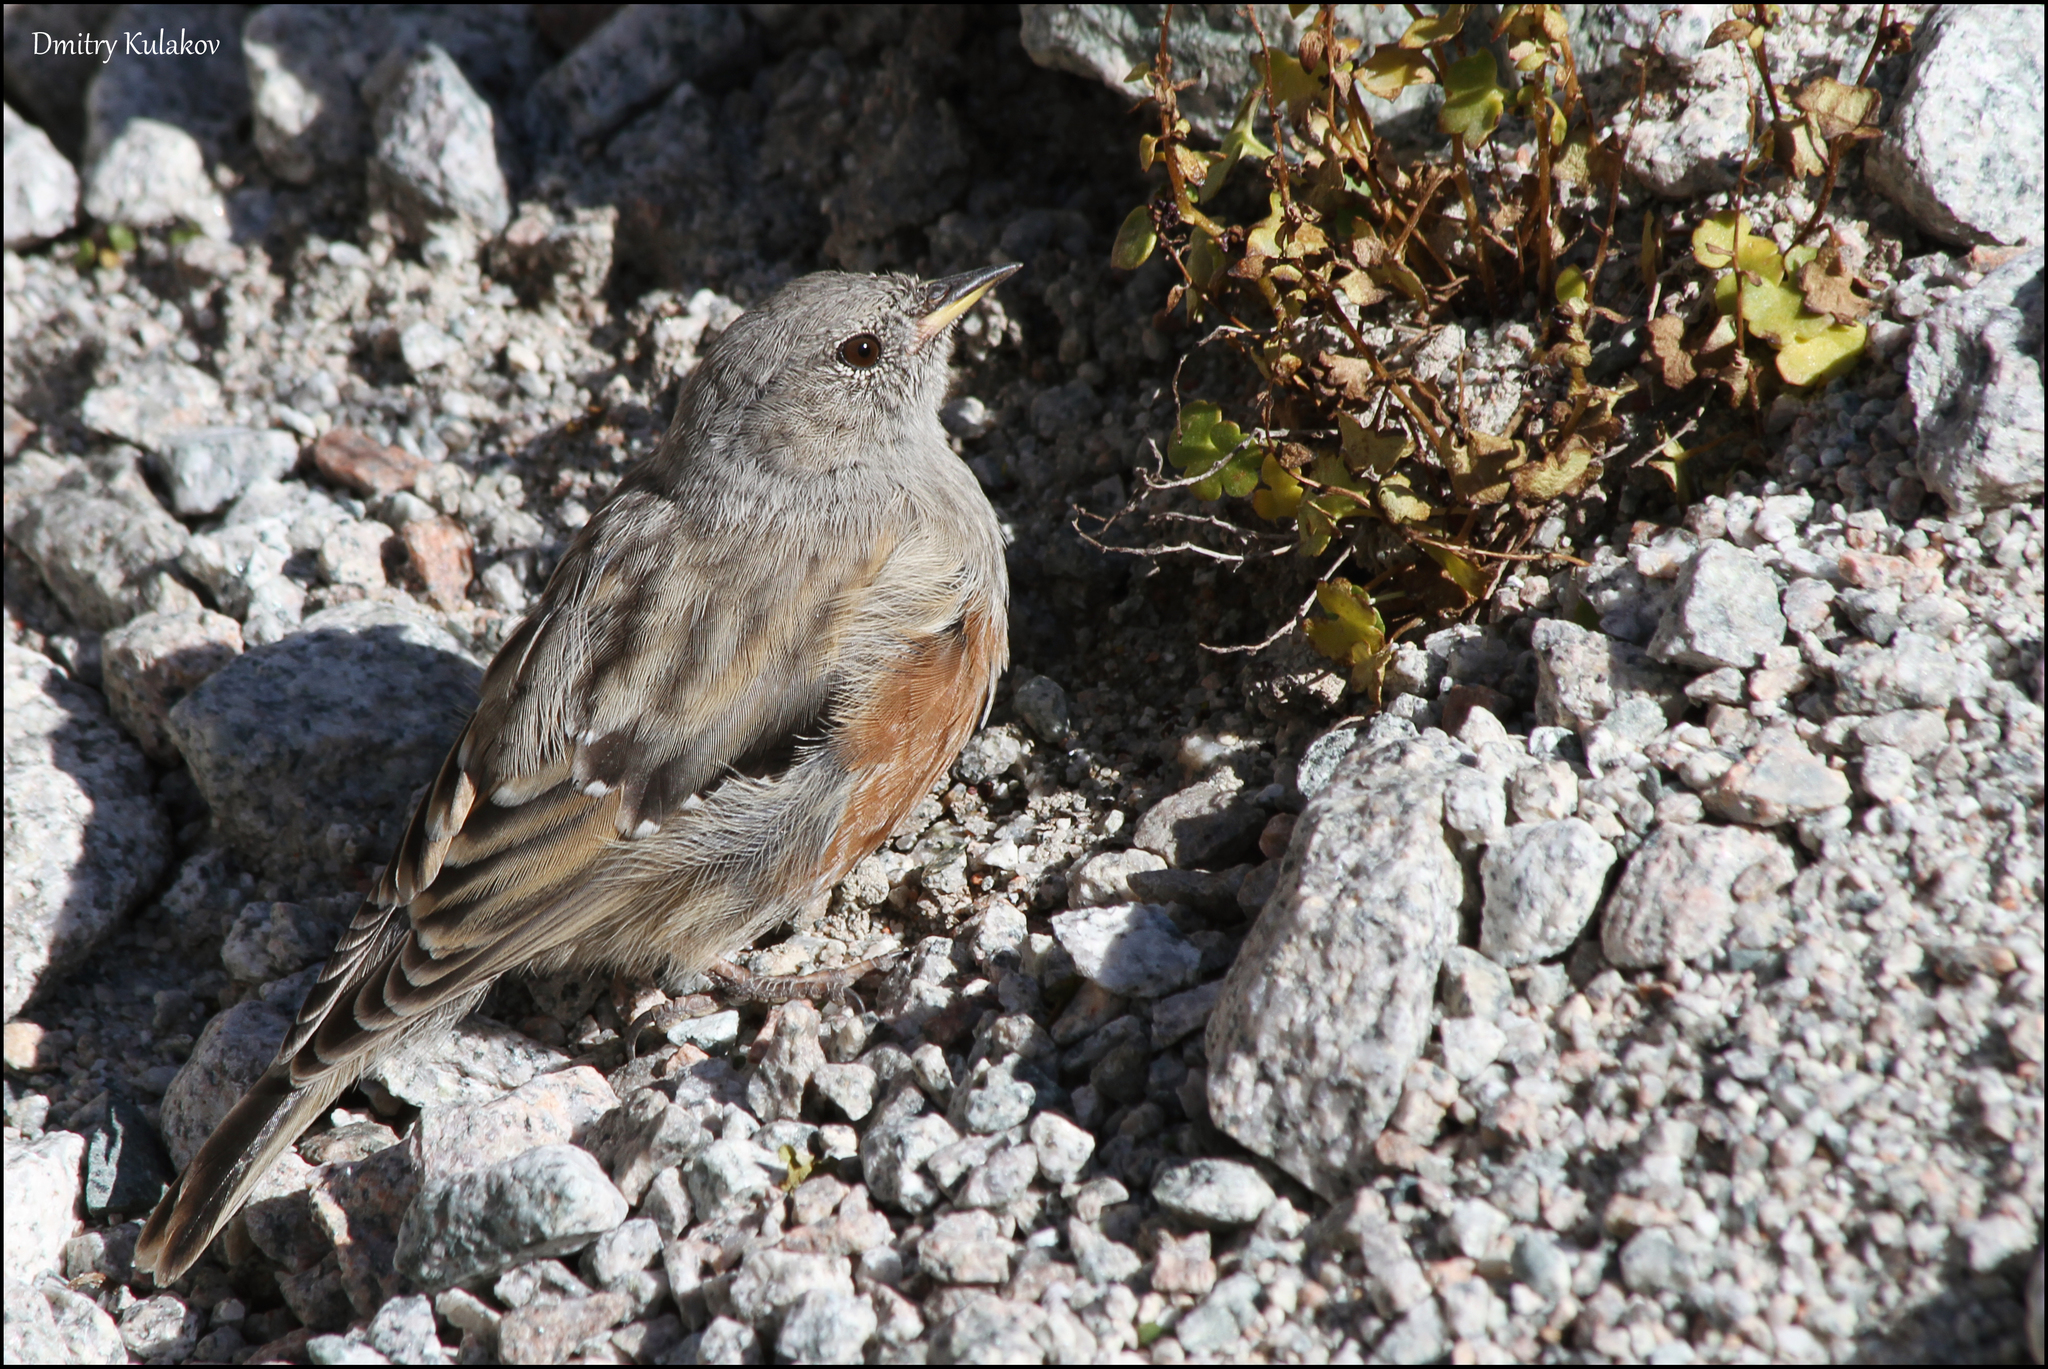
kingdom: Animalia
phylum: Chordata
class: Aves
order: Passeriformes
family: Prunellidae
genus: Prunella
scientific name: Prunella collaris
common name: Alpine accentor
